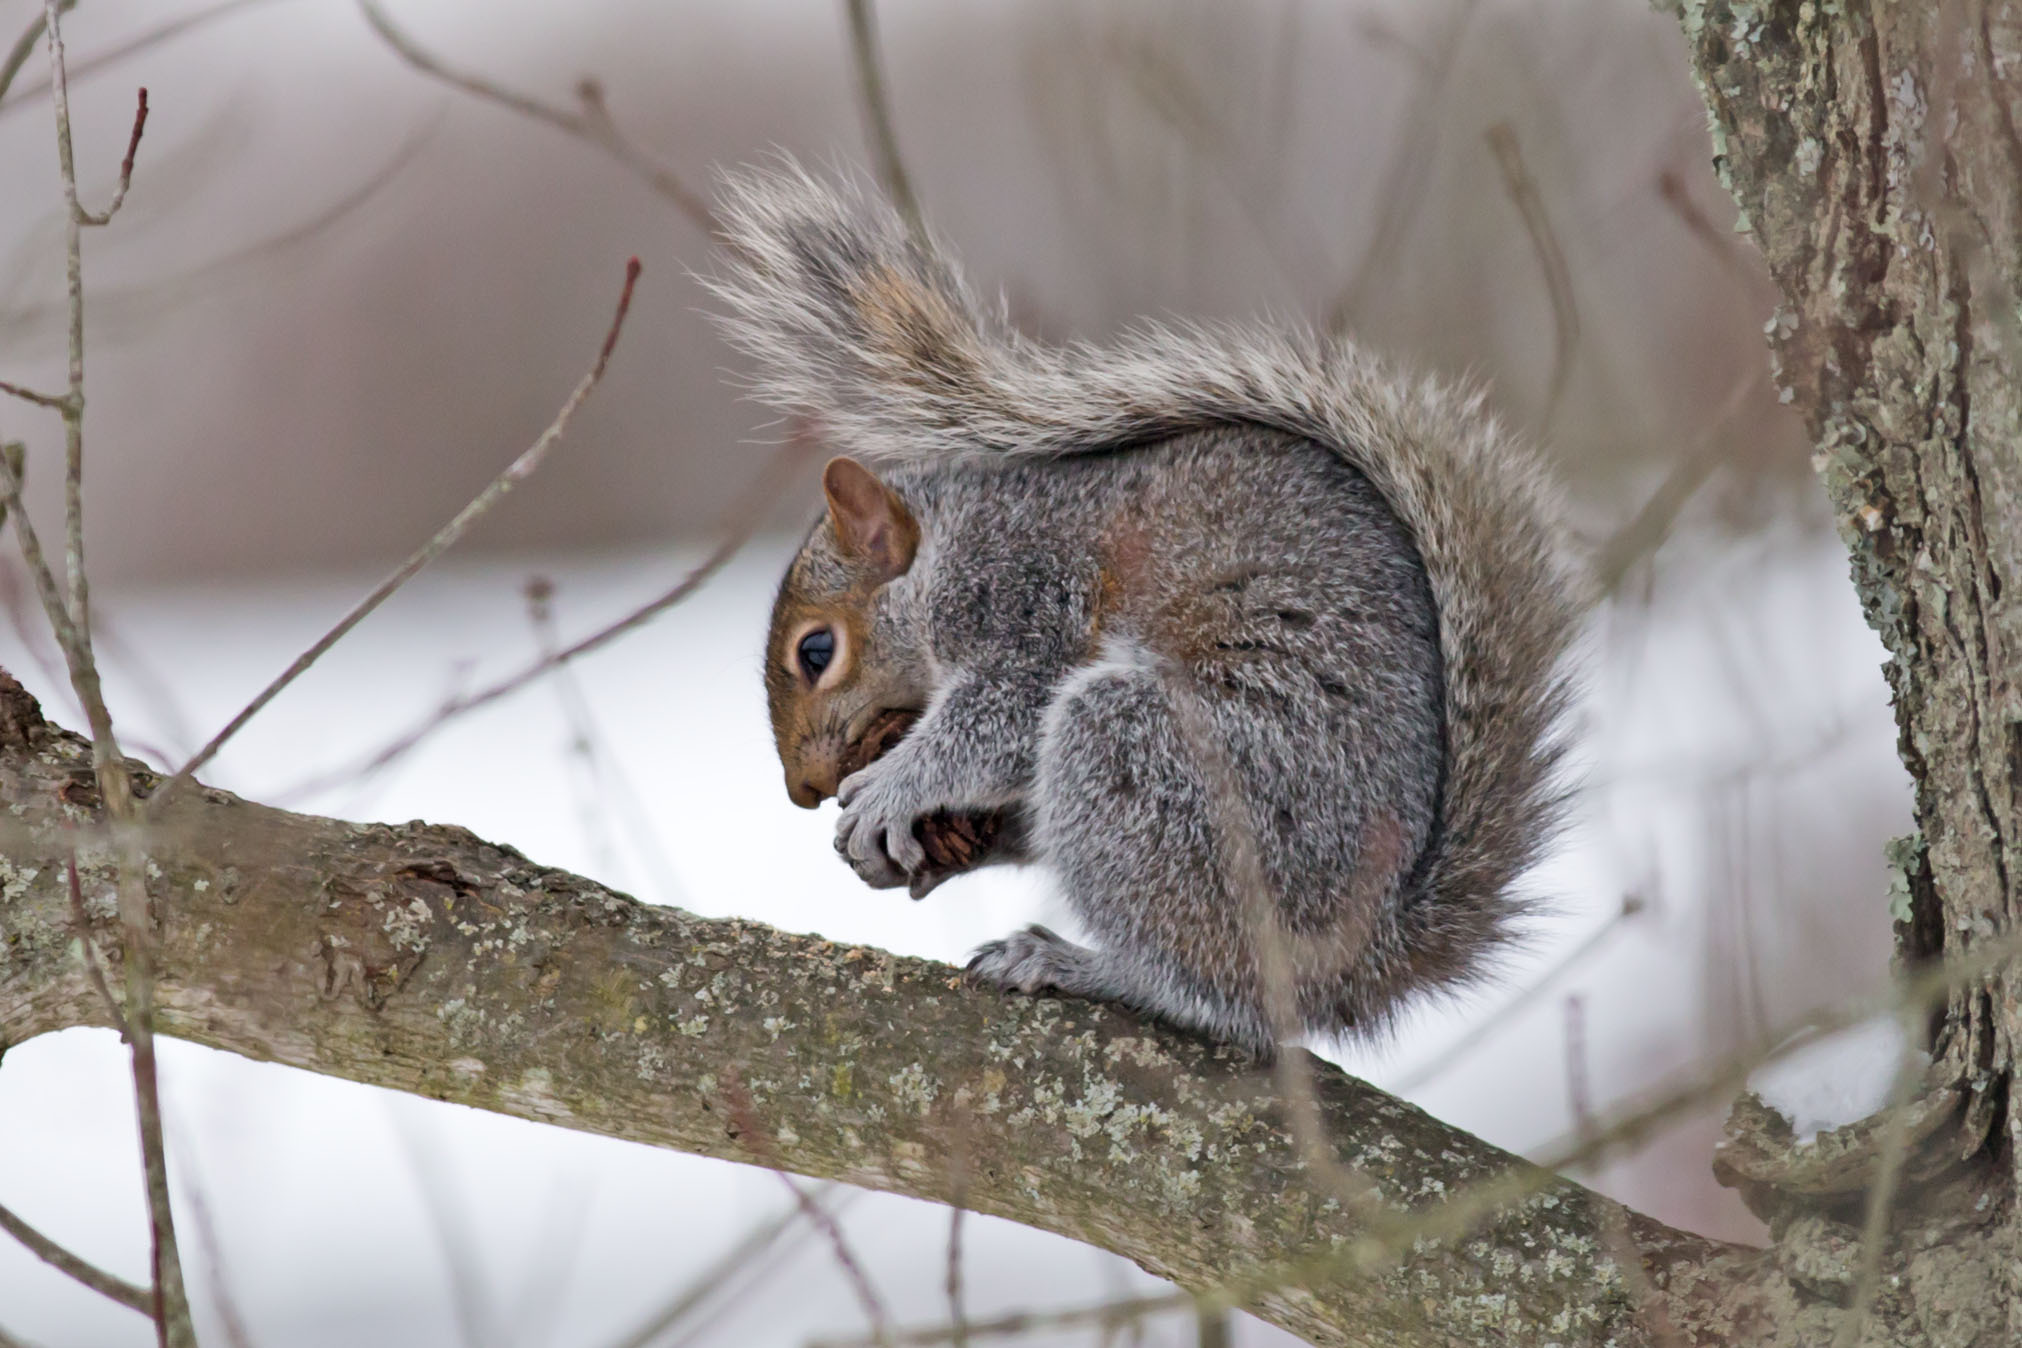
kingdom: Animalia
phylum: Chordata
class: Mammalia
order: Rodentia
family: Sciuridae
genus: Sciurus
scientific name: Sciurus carolinensis
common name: Eastern gray squirrel
